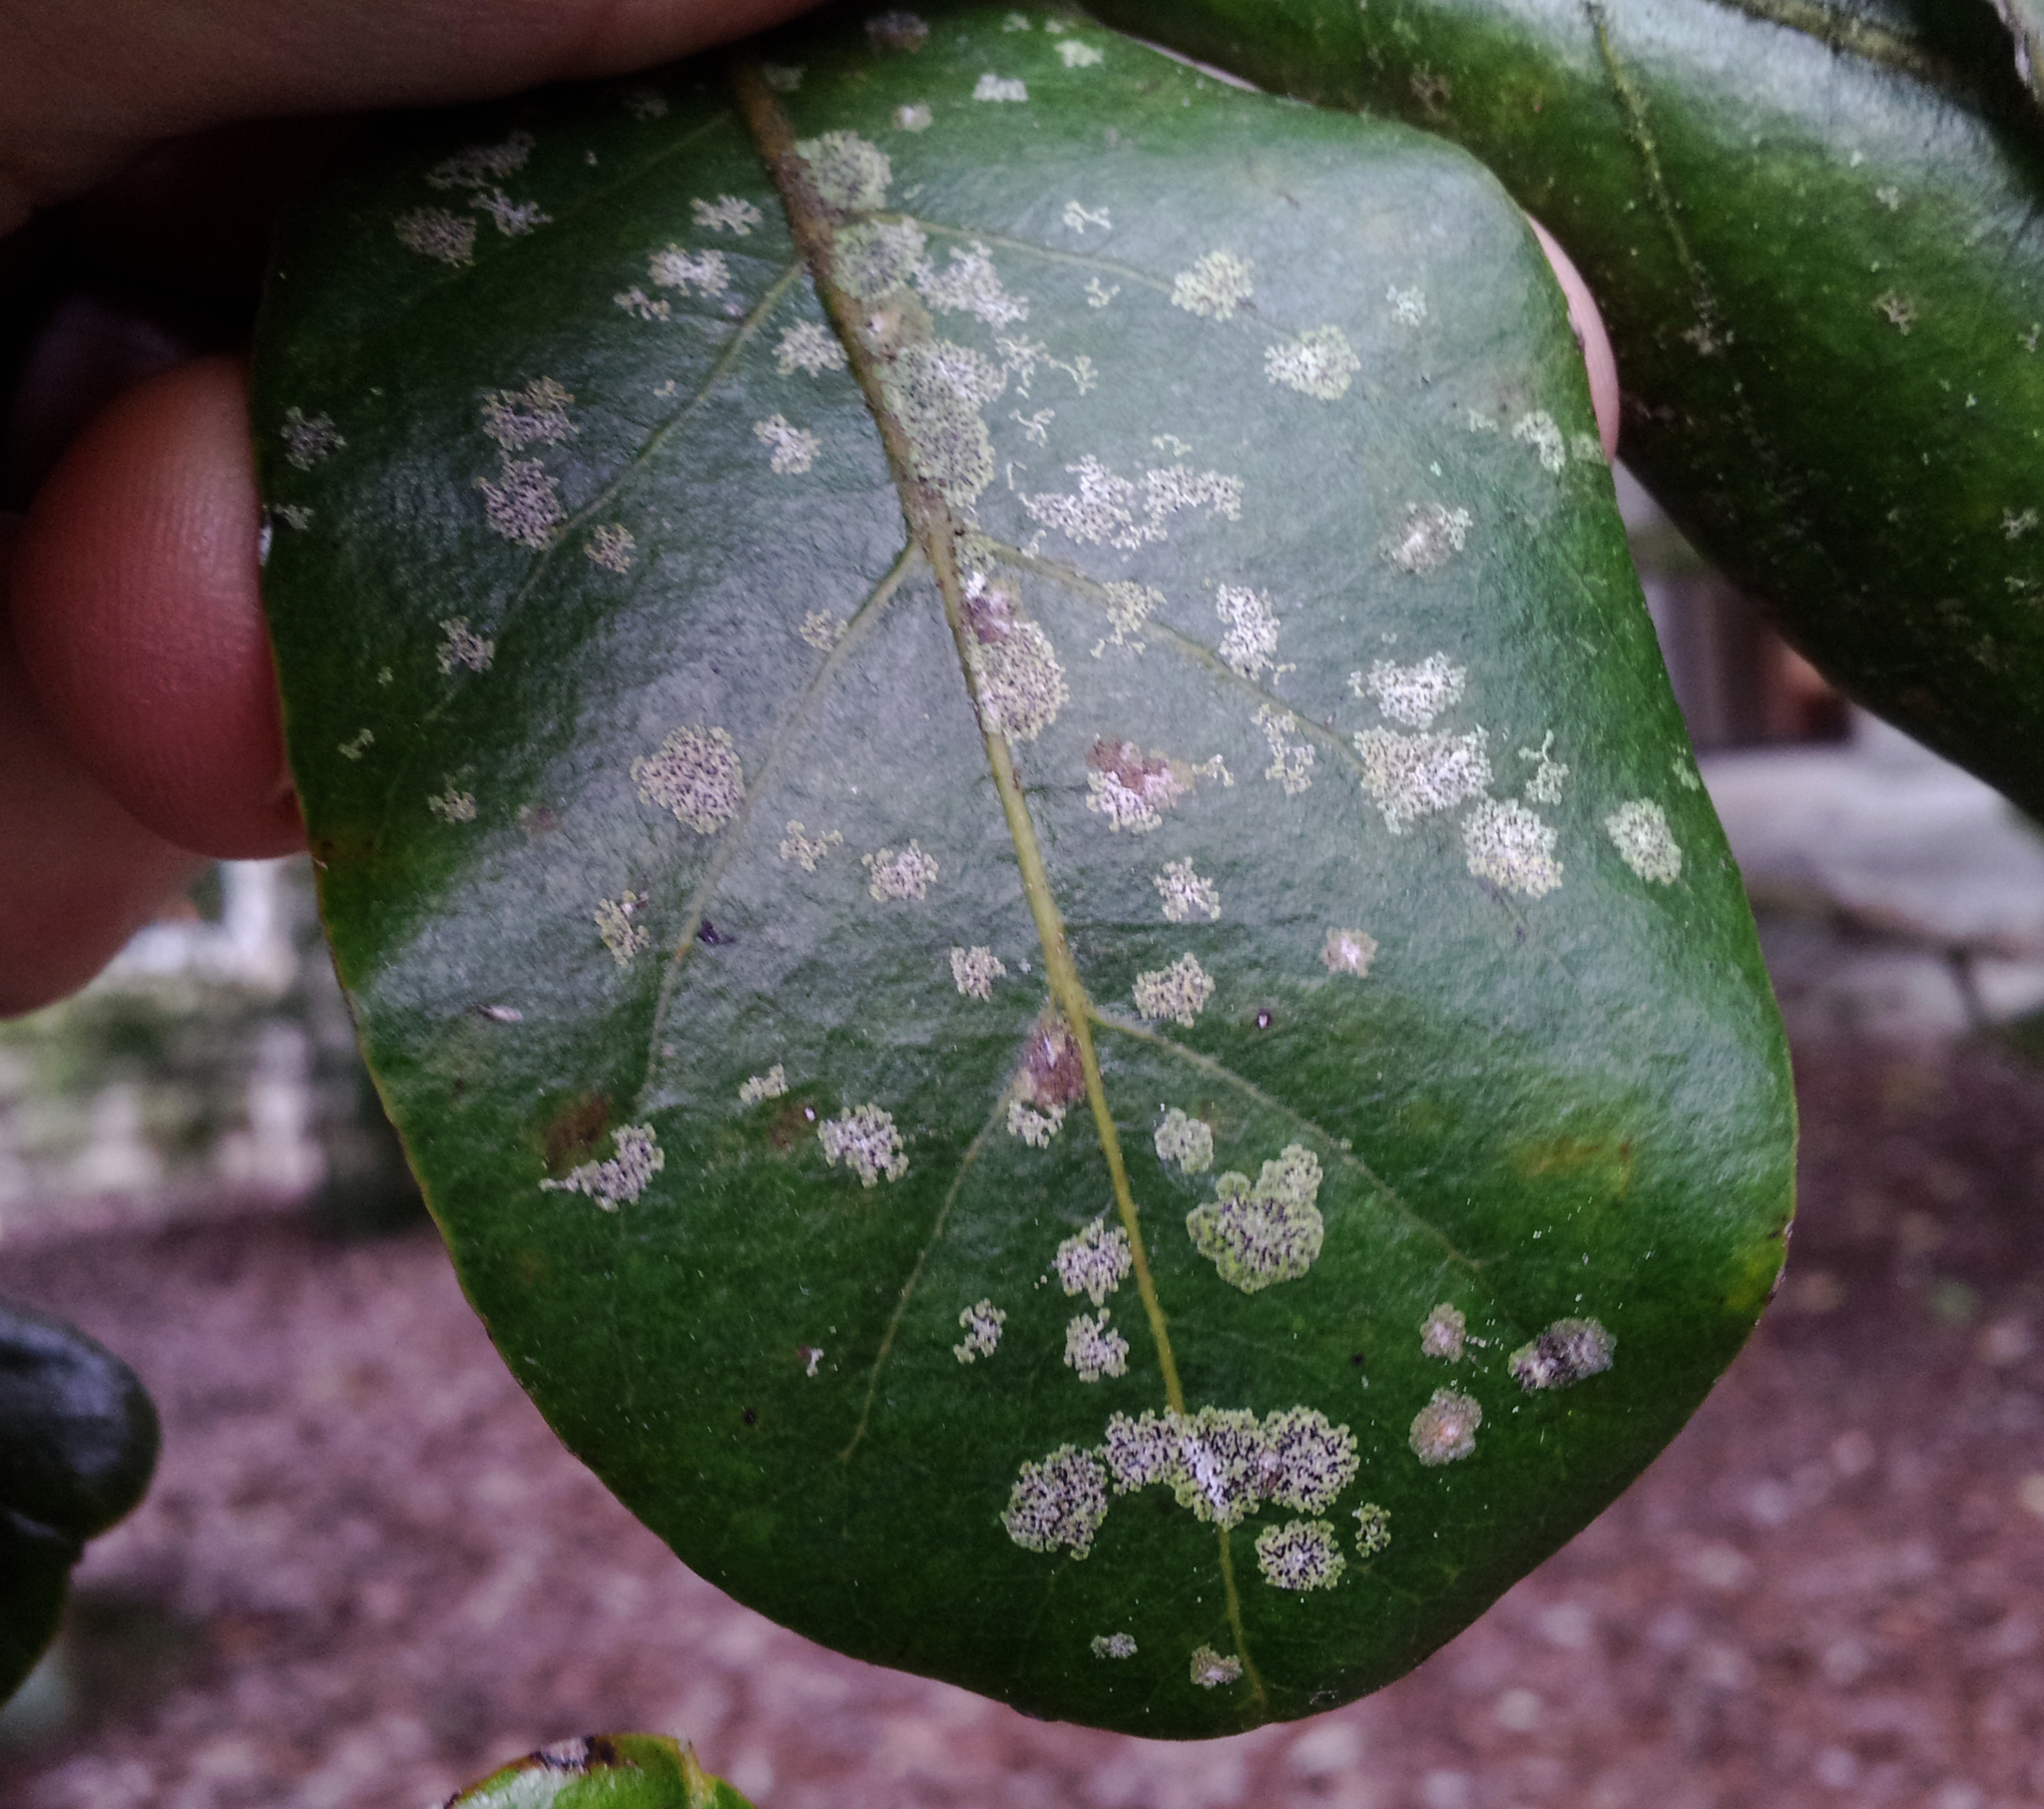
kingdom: Fungi
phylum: Ascomycota
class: Dothideomycetes
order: Strigulales
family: Strigulaceae
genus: Strigula
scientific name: Strigula novae-zelandiae
